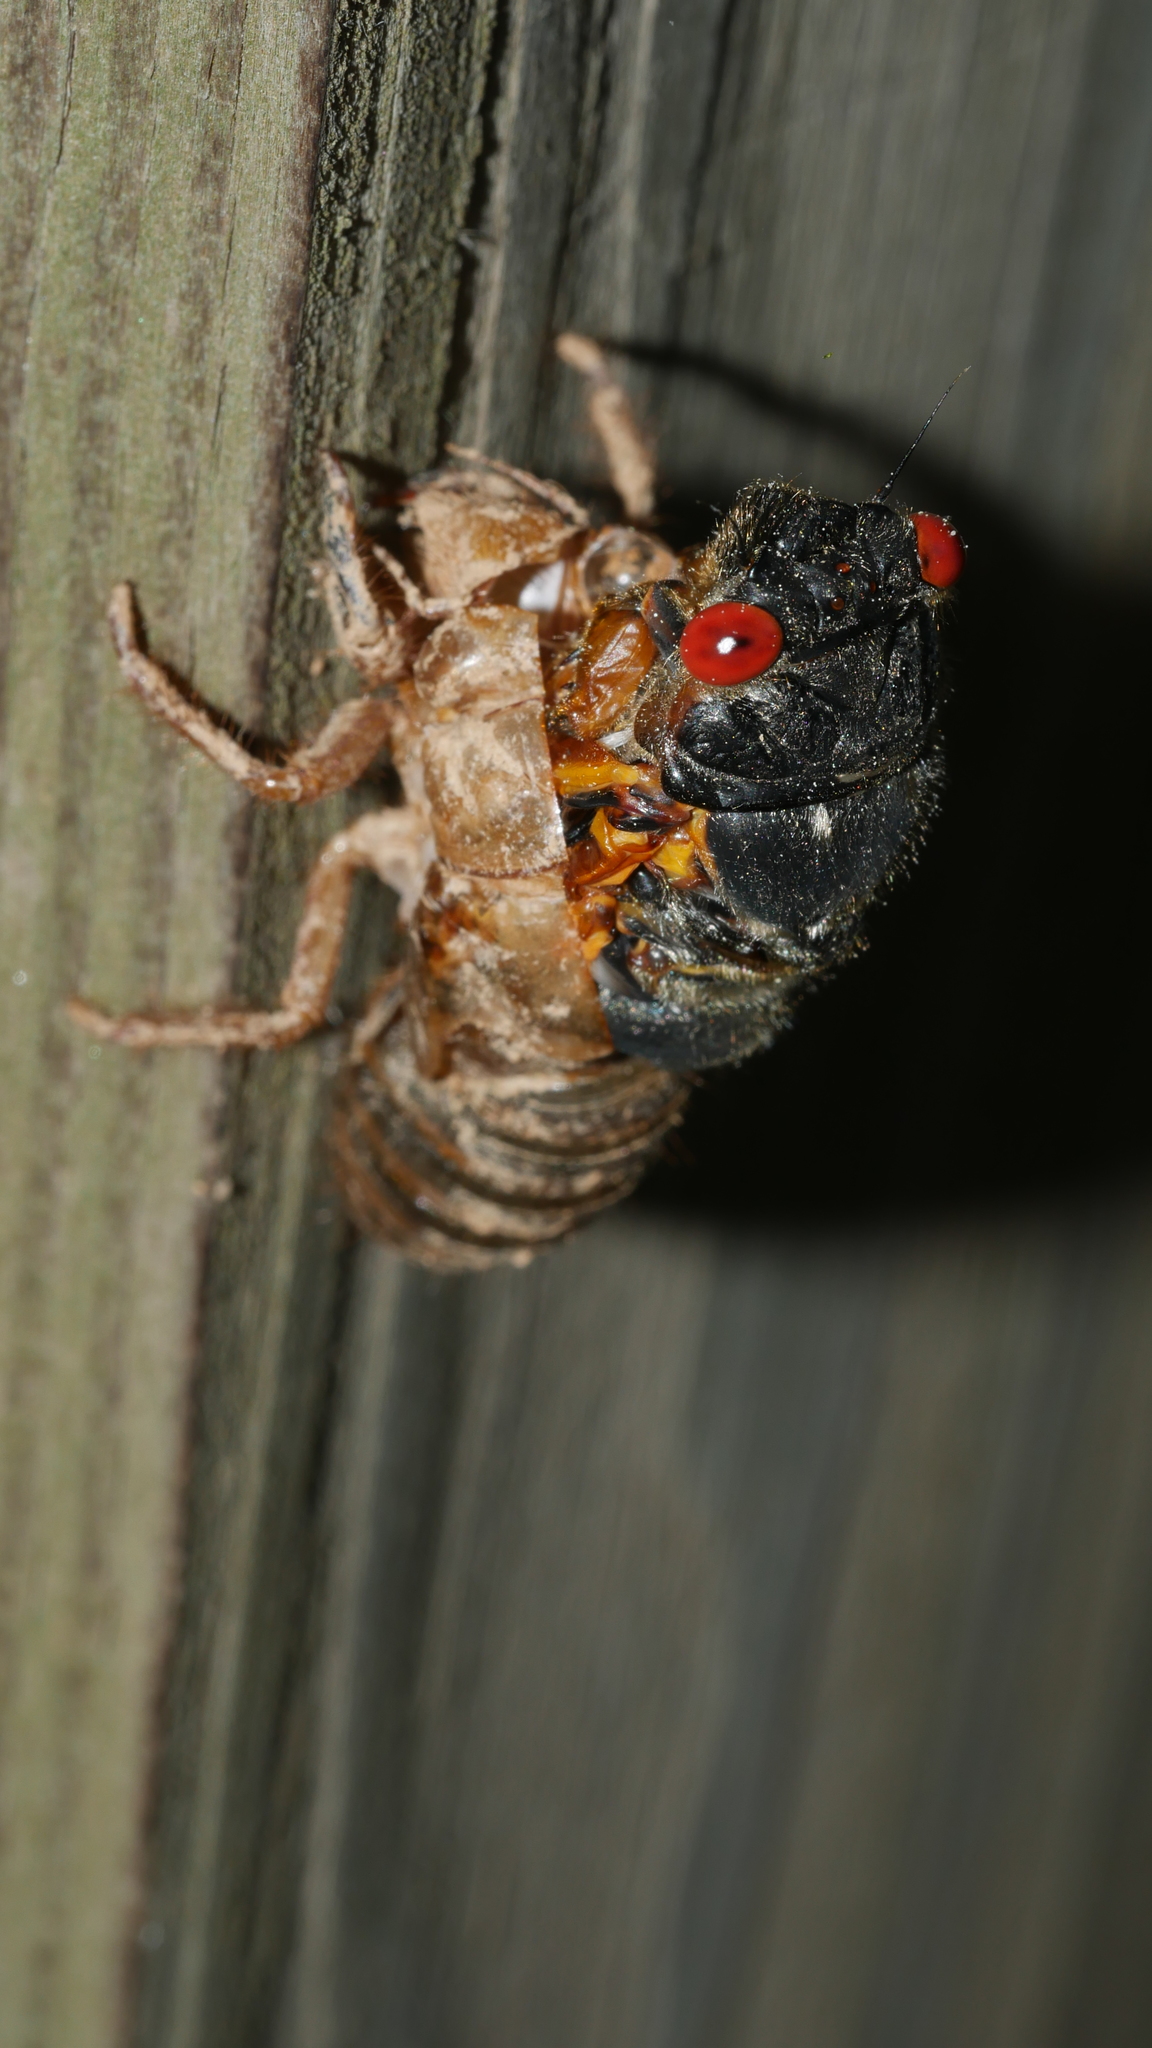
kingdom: Animalia
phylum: Arthropoda
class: Insecta
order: Hemiptera
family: Cicadidae
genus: Magicicada
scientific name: Magicicada septendecim
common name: Periodical cicada
